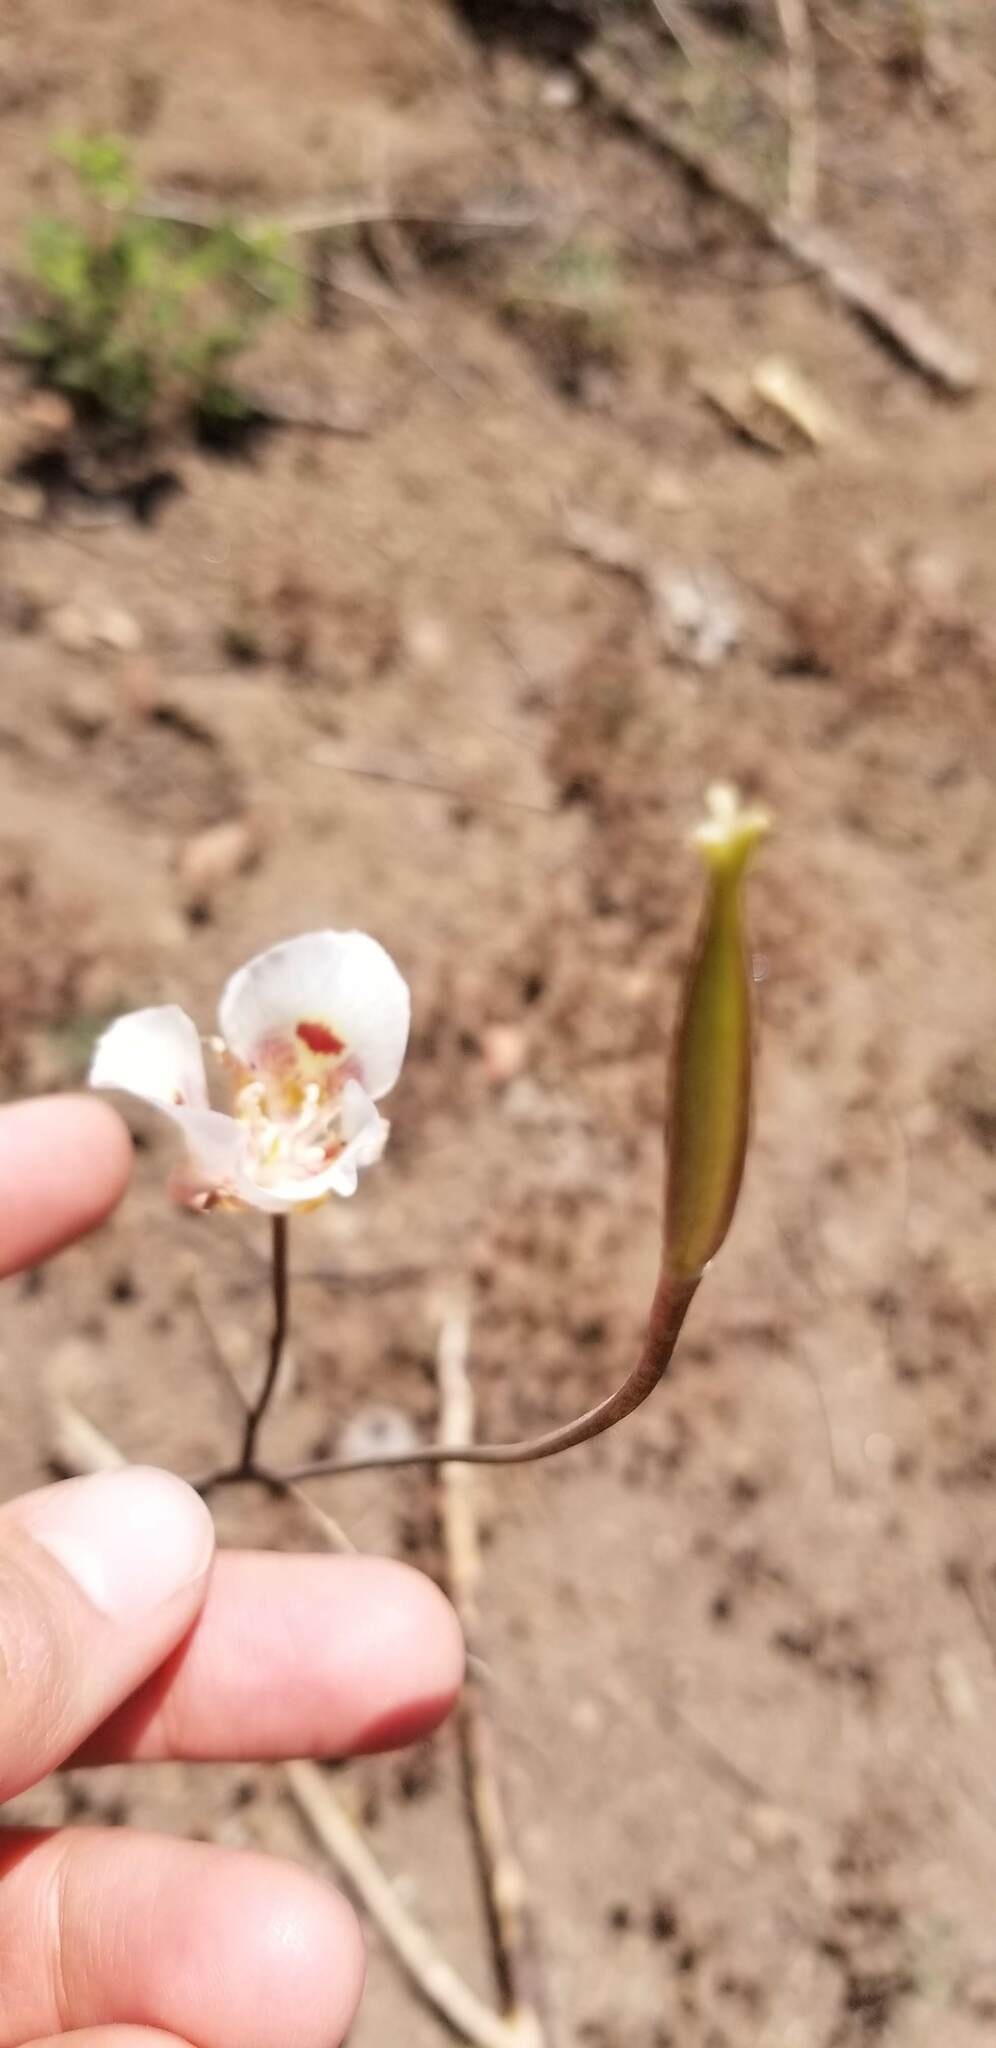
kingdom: Plantae
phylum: Tracheophyta
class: Liliopsida
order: Liliales
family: Liliaceae
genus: Calochortus
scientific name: Calochortus venustus
